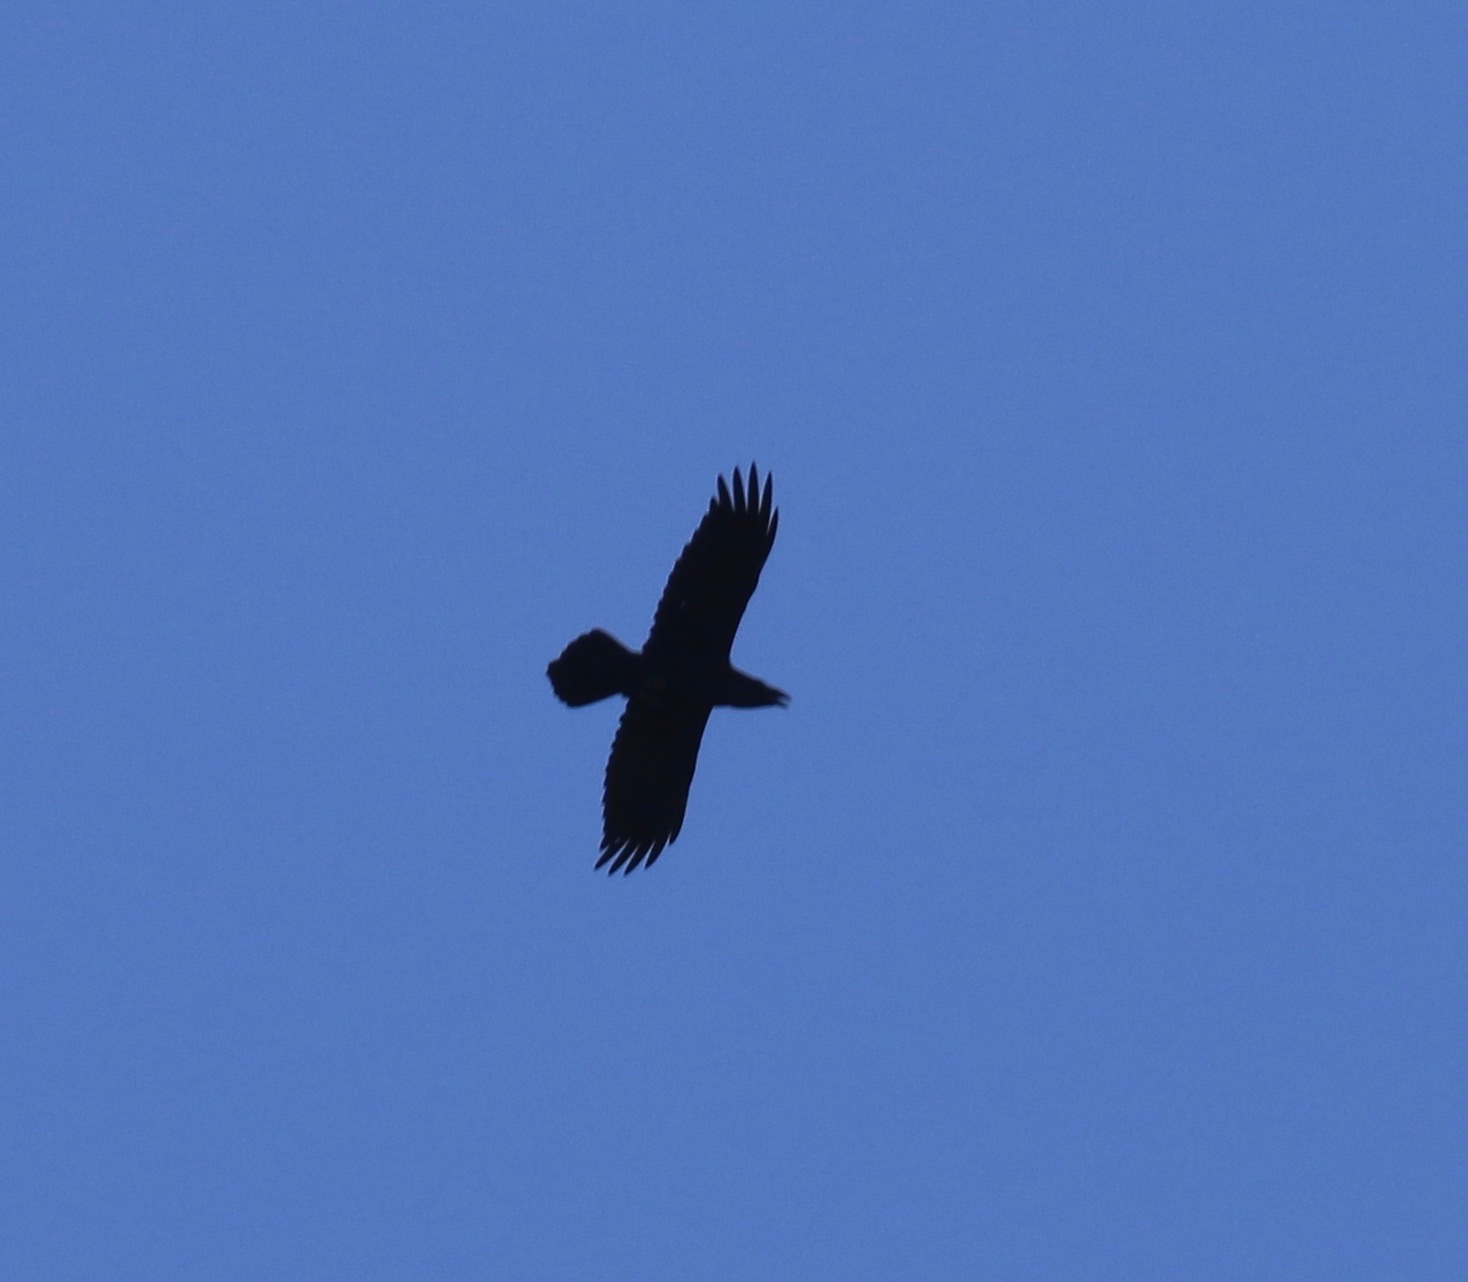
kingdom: Animalia
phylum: Chordata
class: Aves
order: Passeriformes
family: Corvidae
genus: Corvus
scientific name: Corvus corax
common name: Common raven
